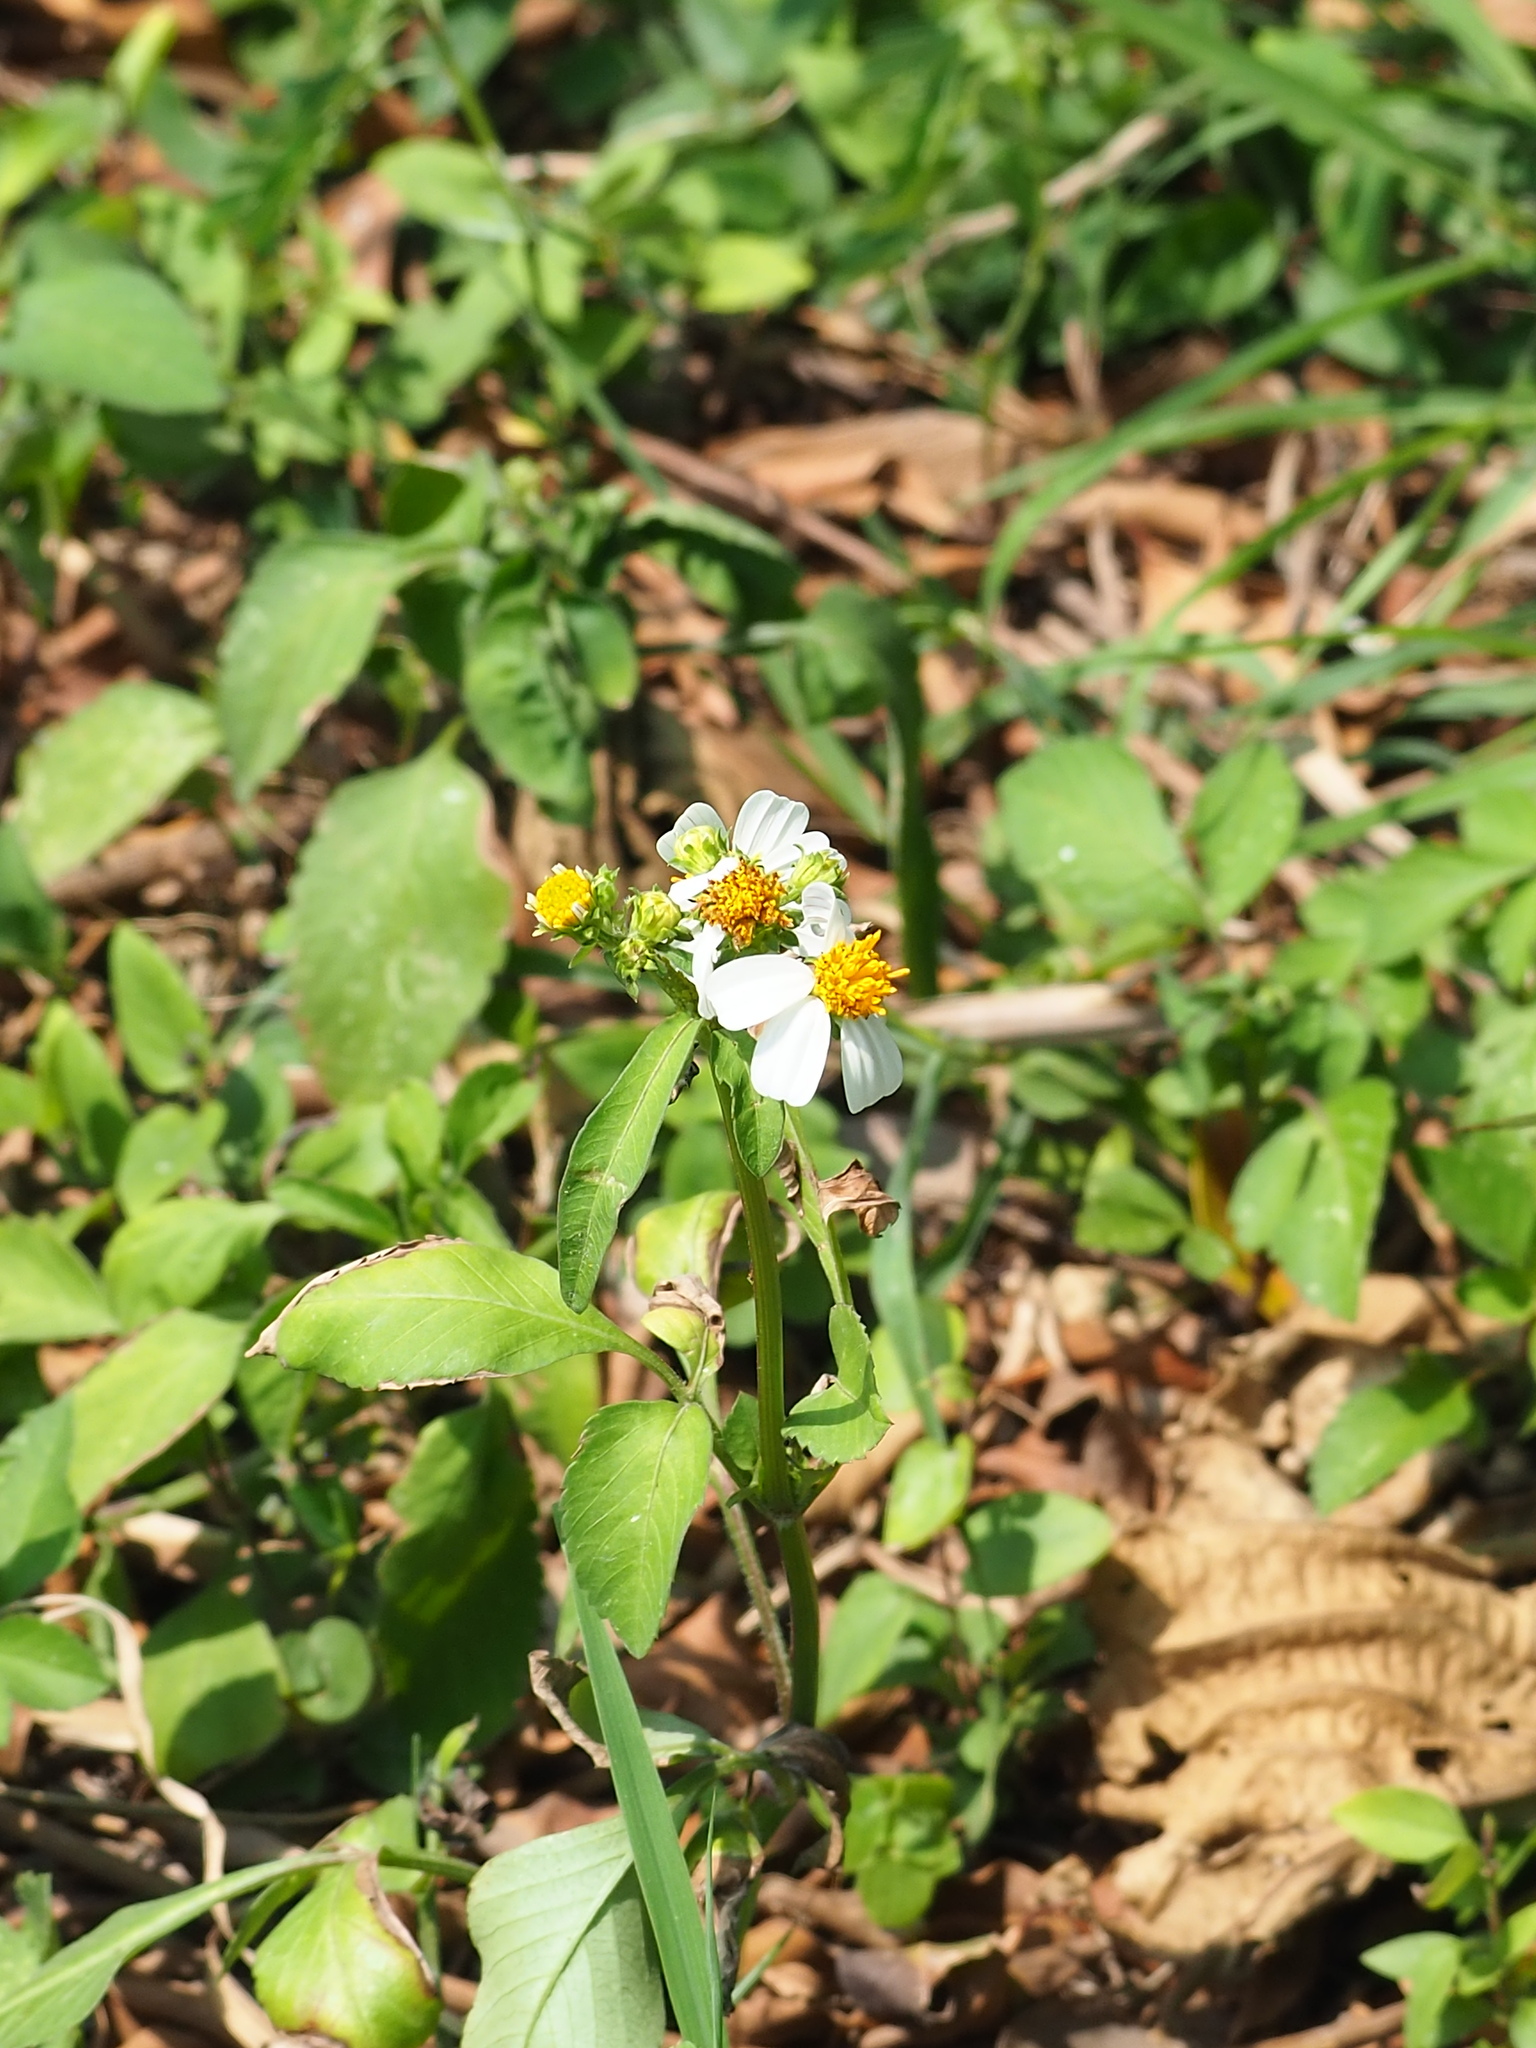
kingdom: Plantae
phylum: Tracheophyta
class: Magnoliopsida
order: Asterales
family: Asteraceae
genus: Bidens
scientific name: Bidens alba
